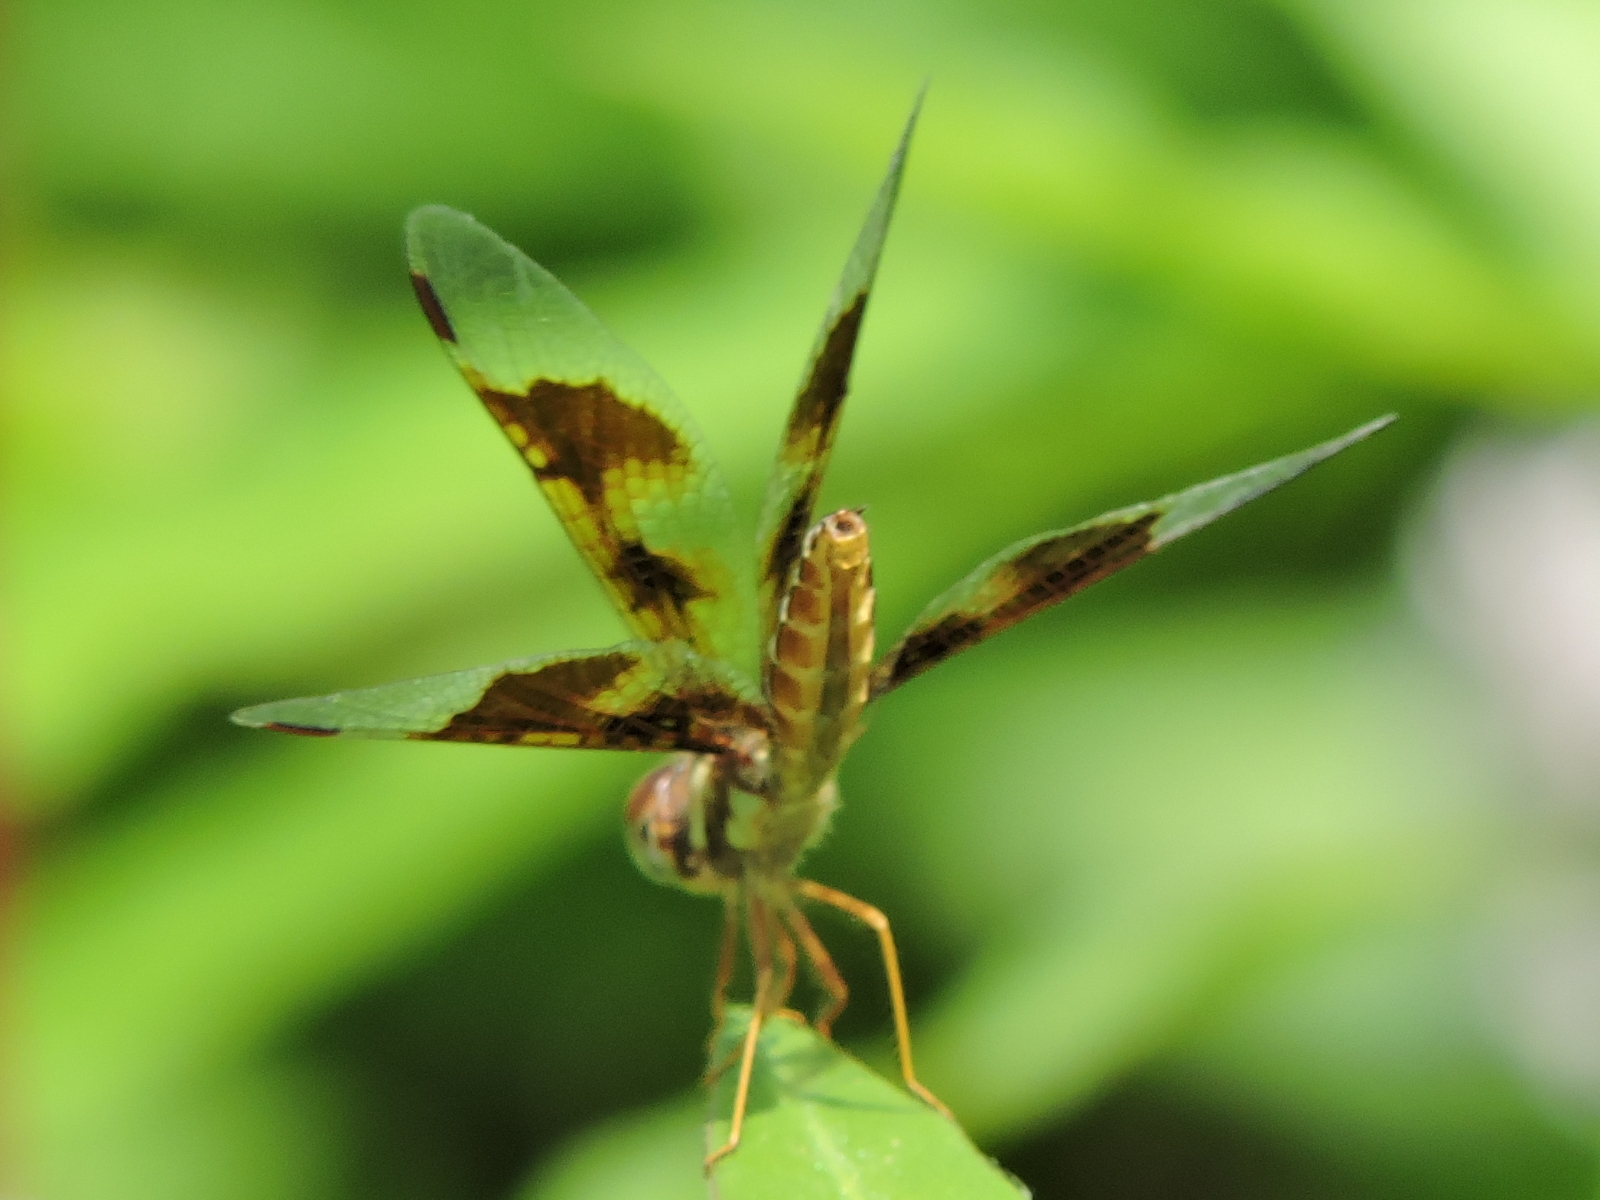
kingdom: Animalia
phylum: Arthropoda
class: Insecta
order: Odonata
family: Libellulidae
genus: Perithemis
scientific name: Perithemis tenera
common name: Eastern amberwing
